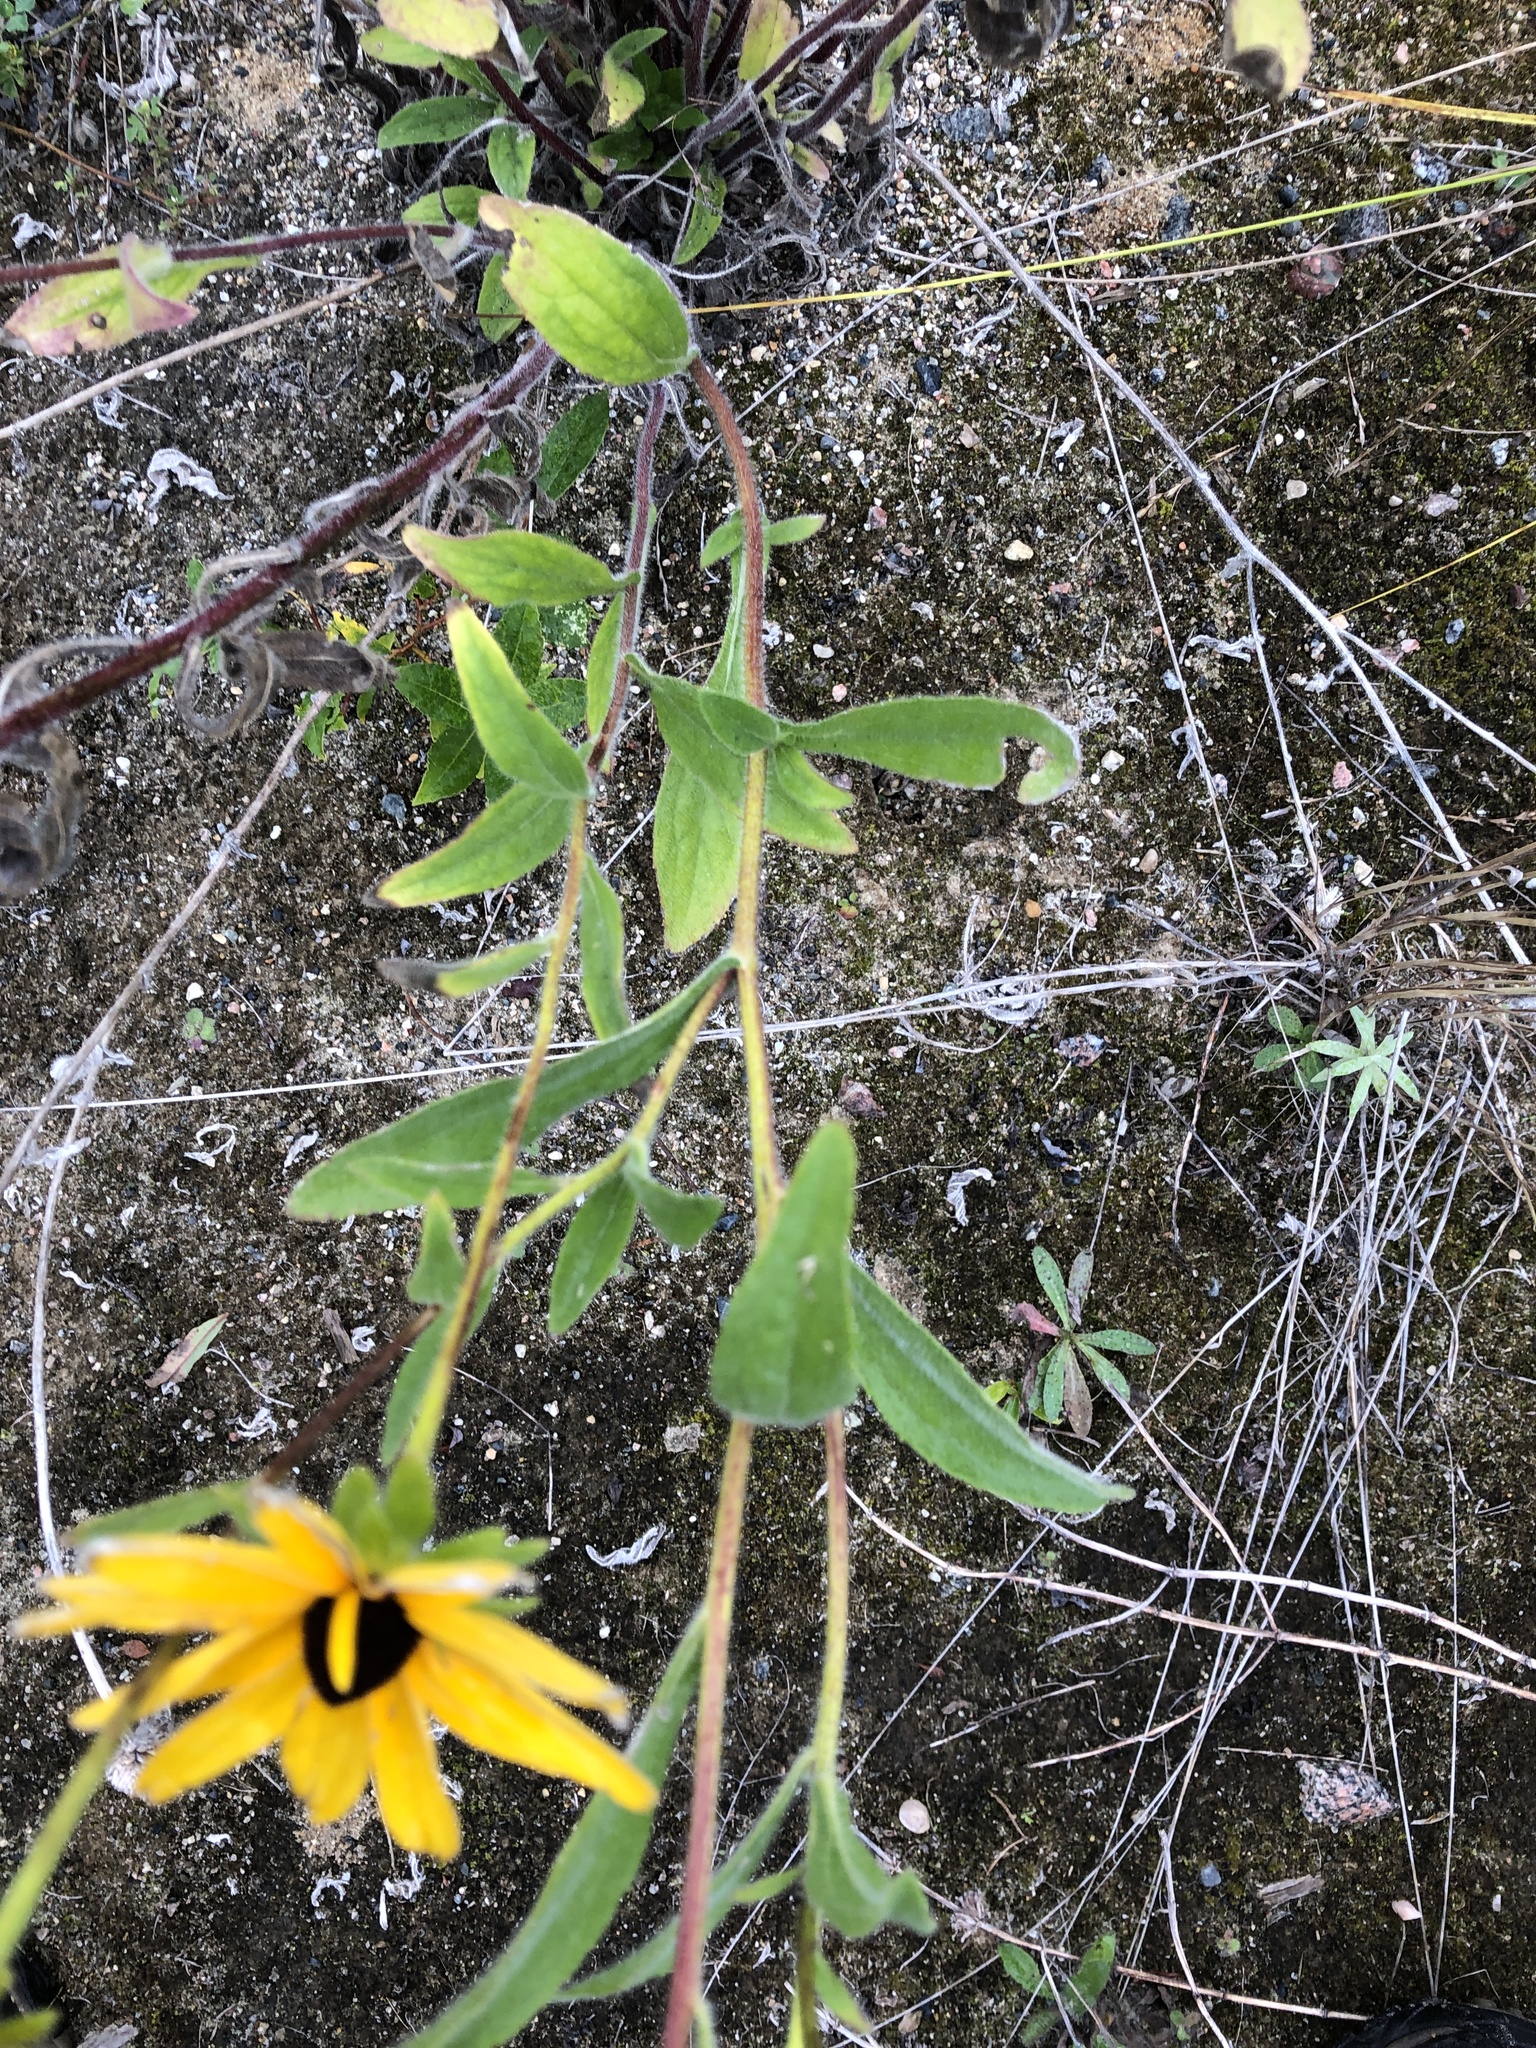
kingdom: Plantae
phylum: Tracheophyta
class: Magnoliopsida
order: Asterales
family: Asteraceae
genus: Rudbeckia
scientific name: Rudbeckia hirta
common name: Black-eyed-susan
